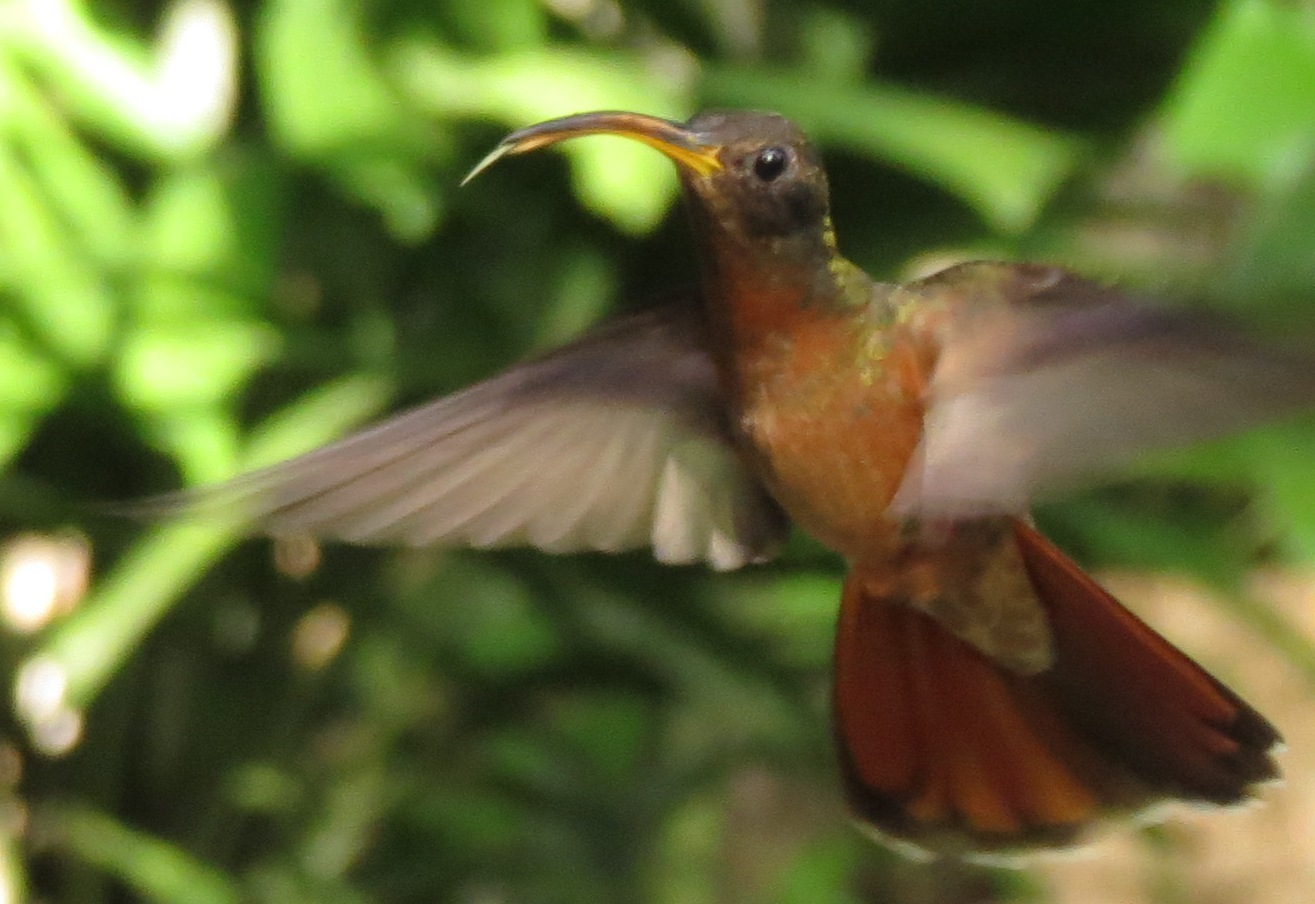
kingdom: Animalia
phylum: Chordata
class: Aves
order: Apodiformes
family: Trochilidae
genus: Glaucis
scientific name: Glaucis hirsutus
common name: Rufous-breasted hermit
